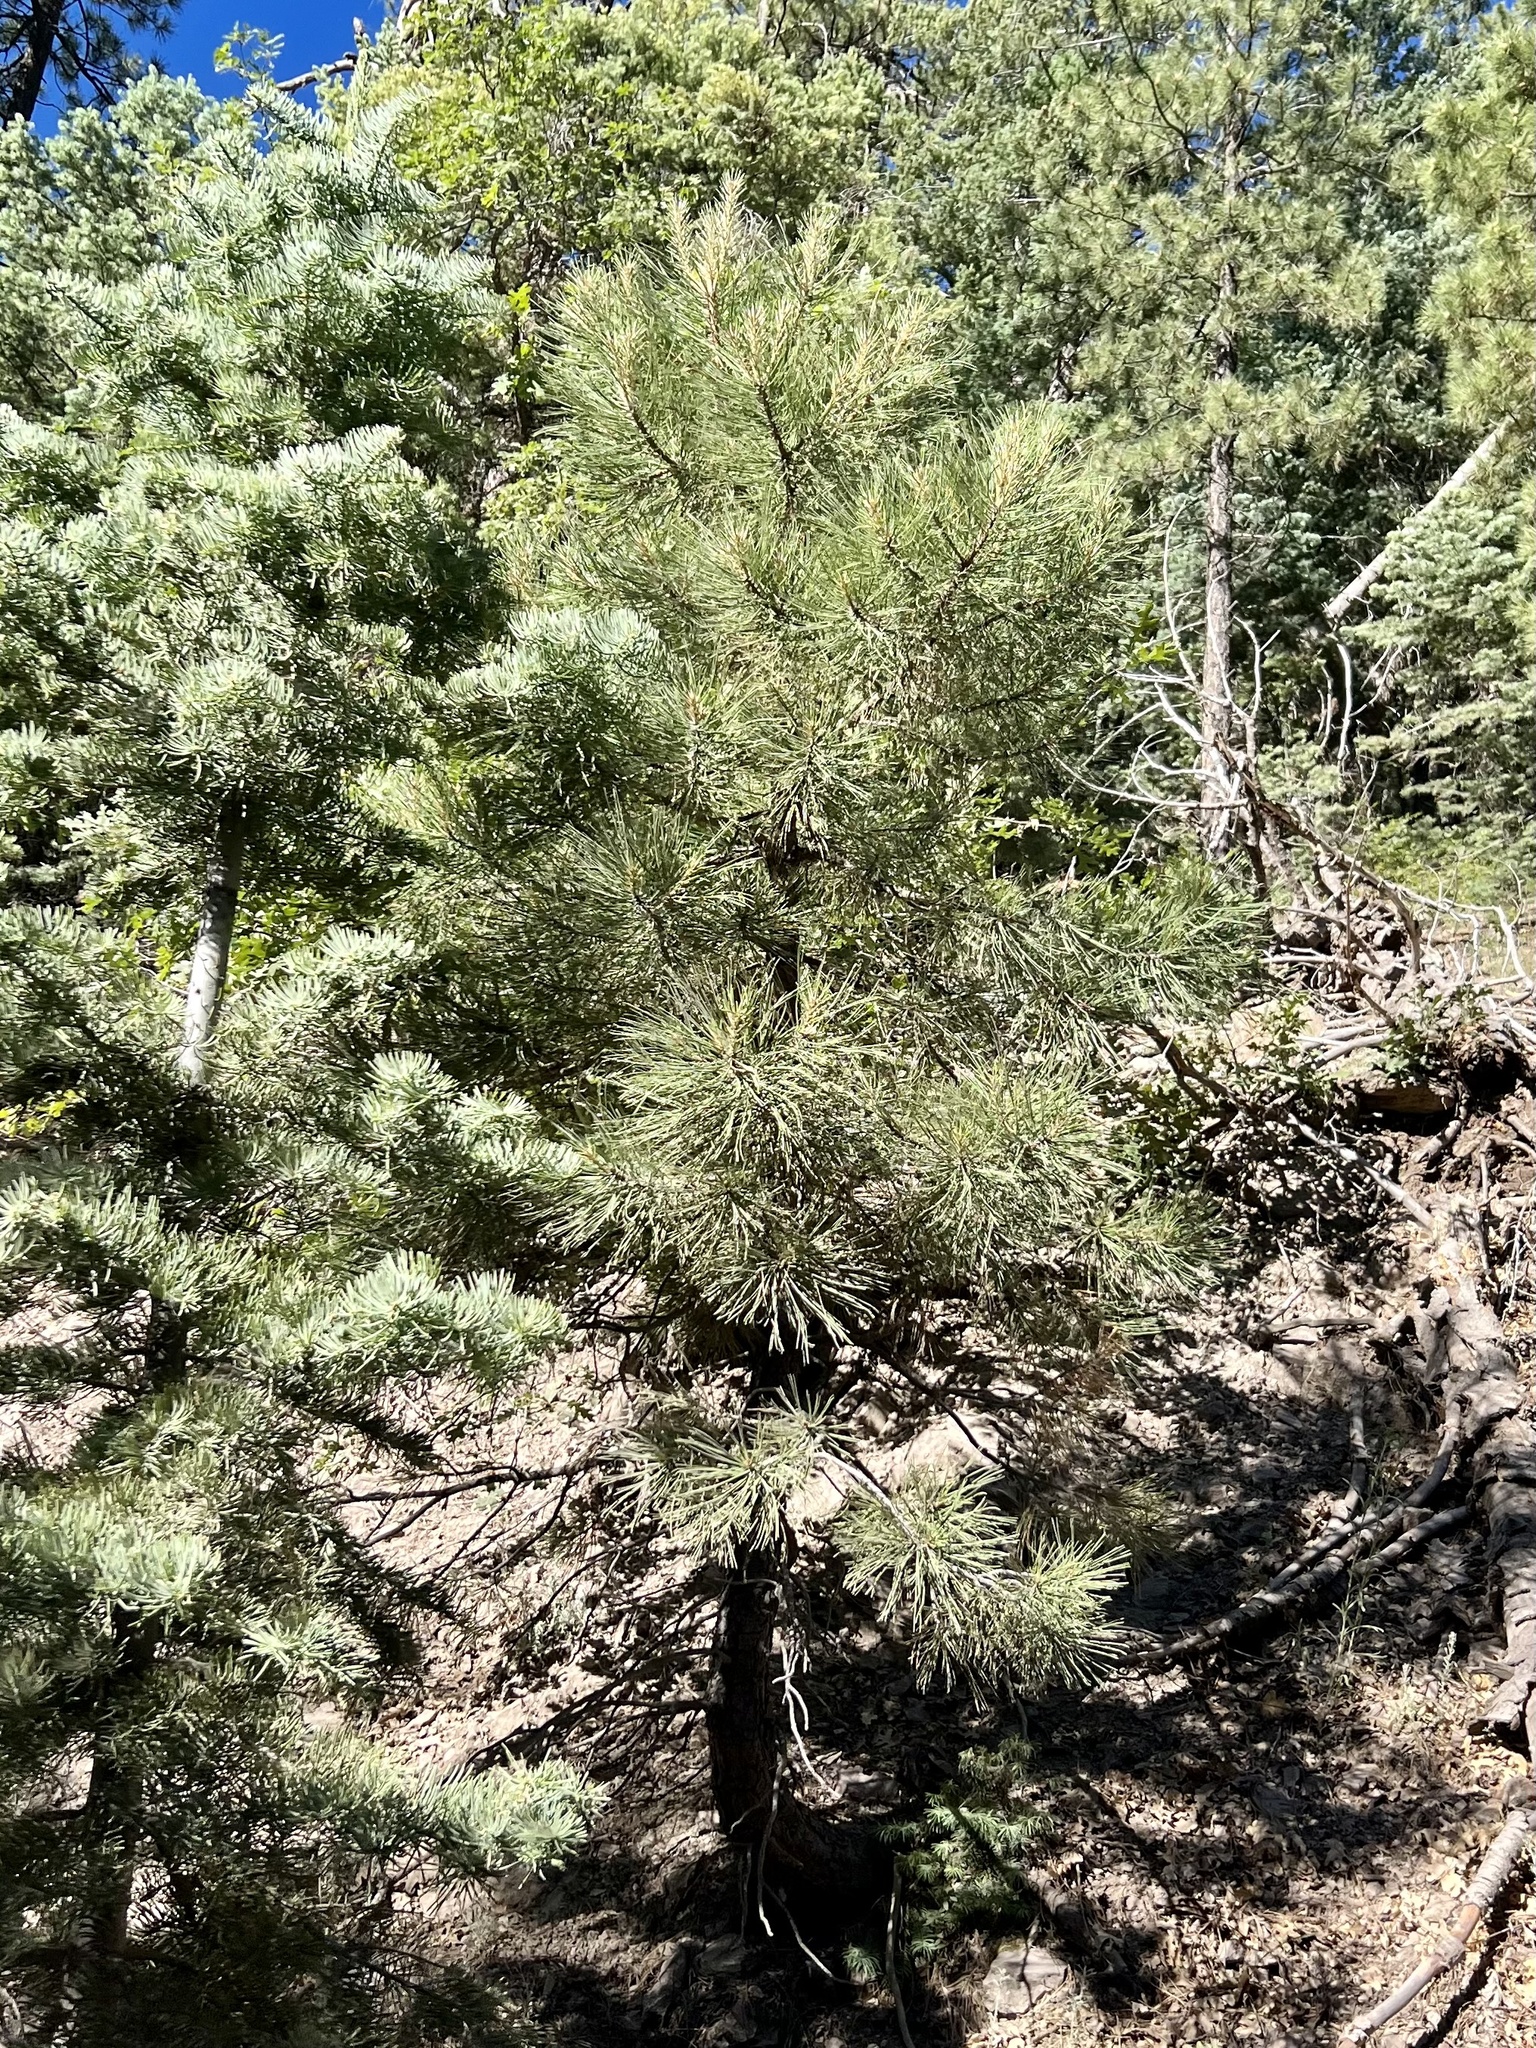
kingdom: Plantae
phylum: Tracheophyta
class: Pinopsida
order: Pinales
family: Pinaceae
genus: Pinus
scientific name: Pinus ponderosa
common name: Western yellow-pine
